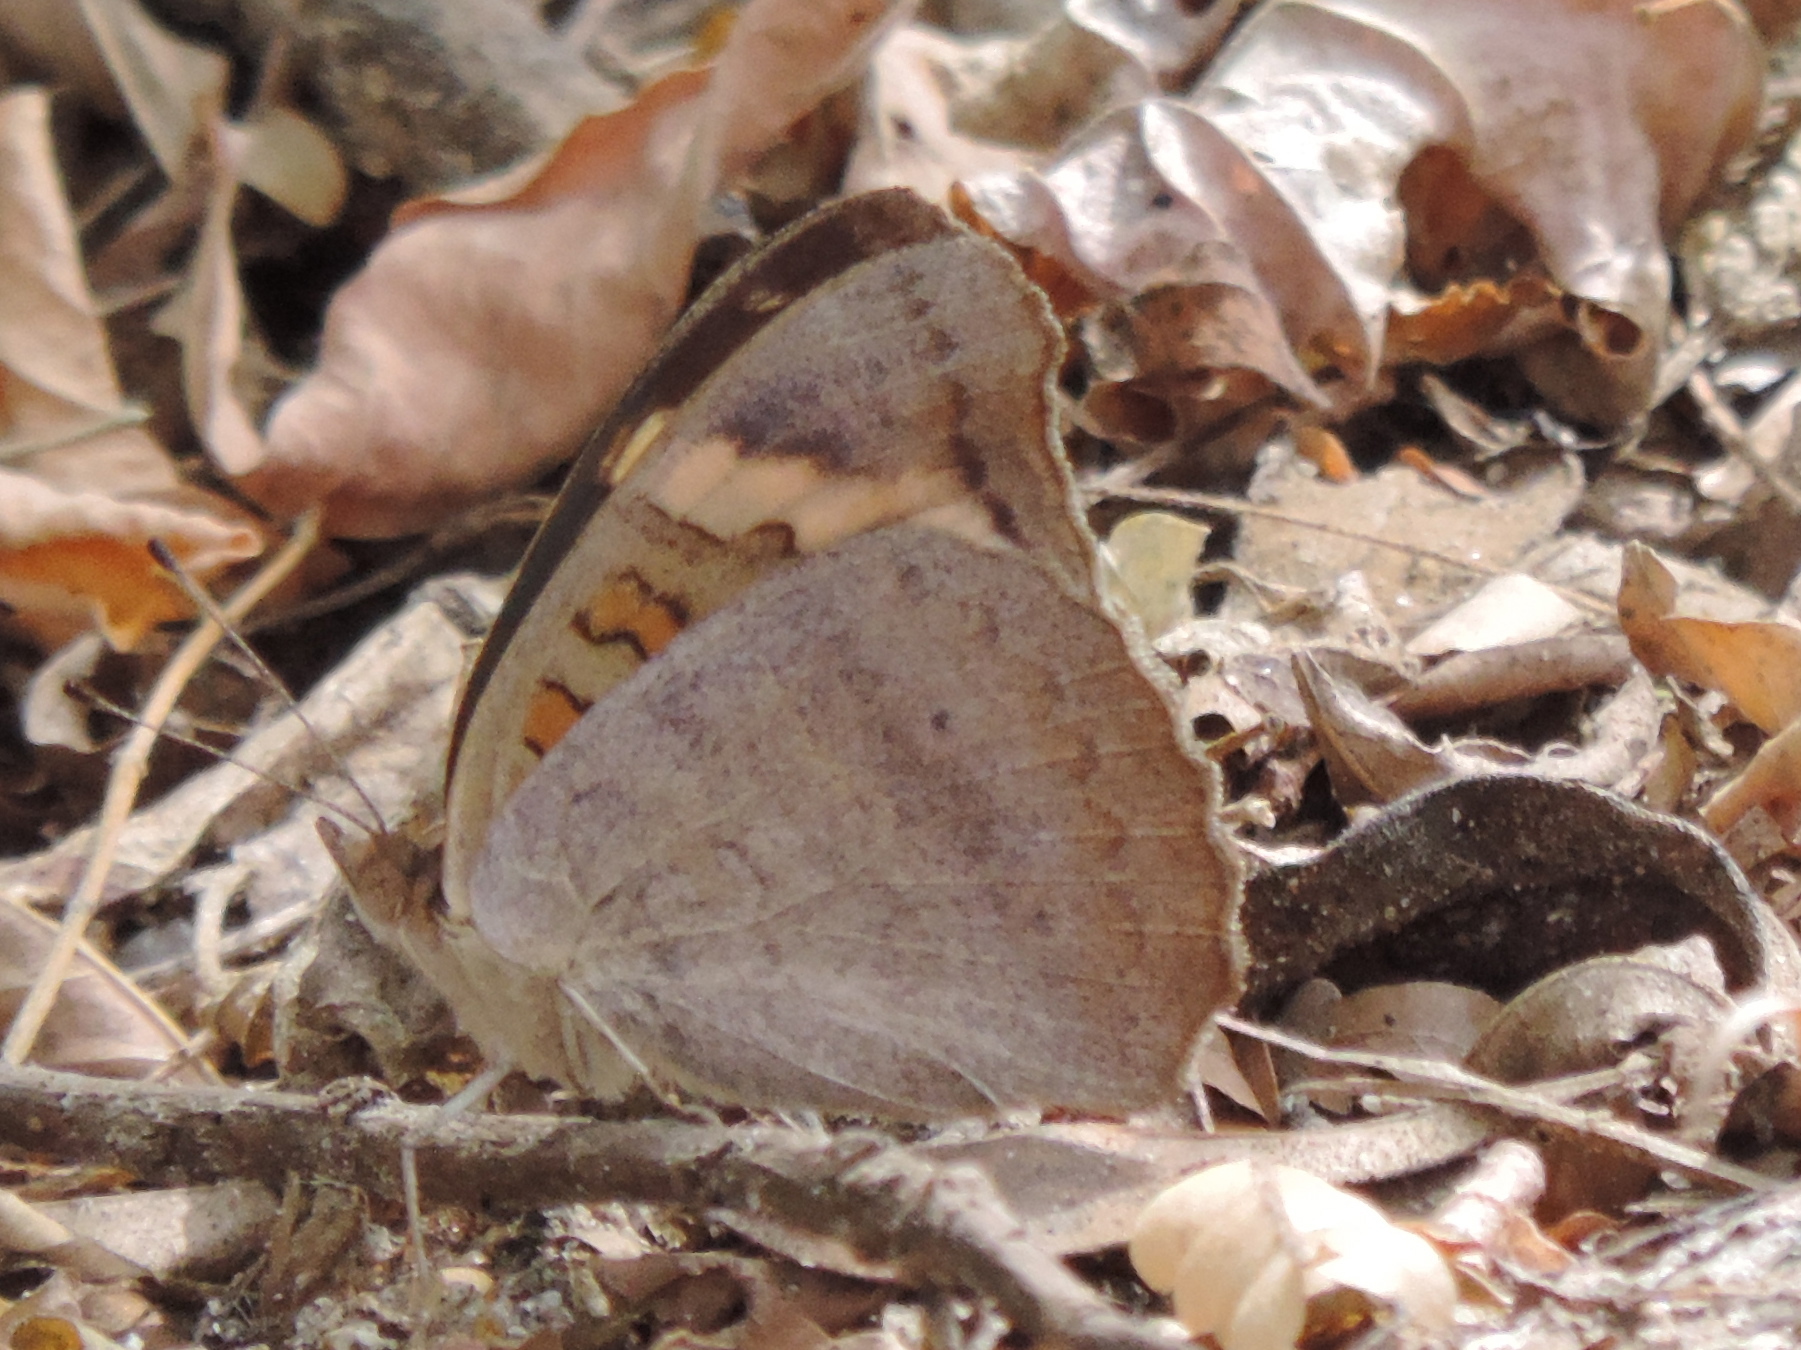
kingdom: Animalia
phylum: Arthropoda
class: Insecta
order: Lepidoptera
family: Nymphalidae
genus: Junonia
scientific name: Junonia
